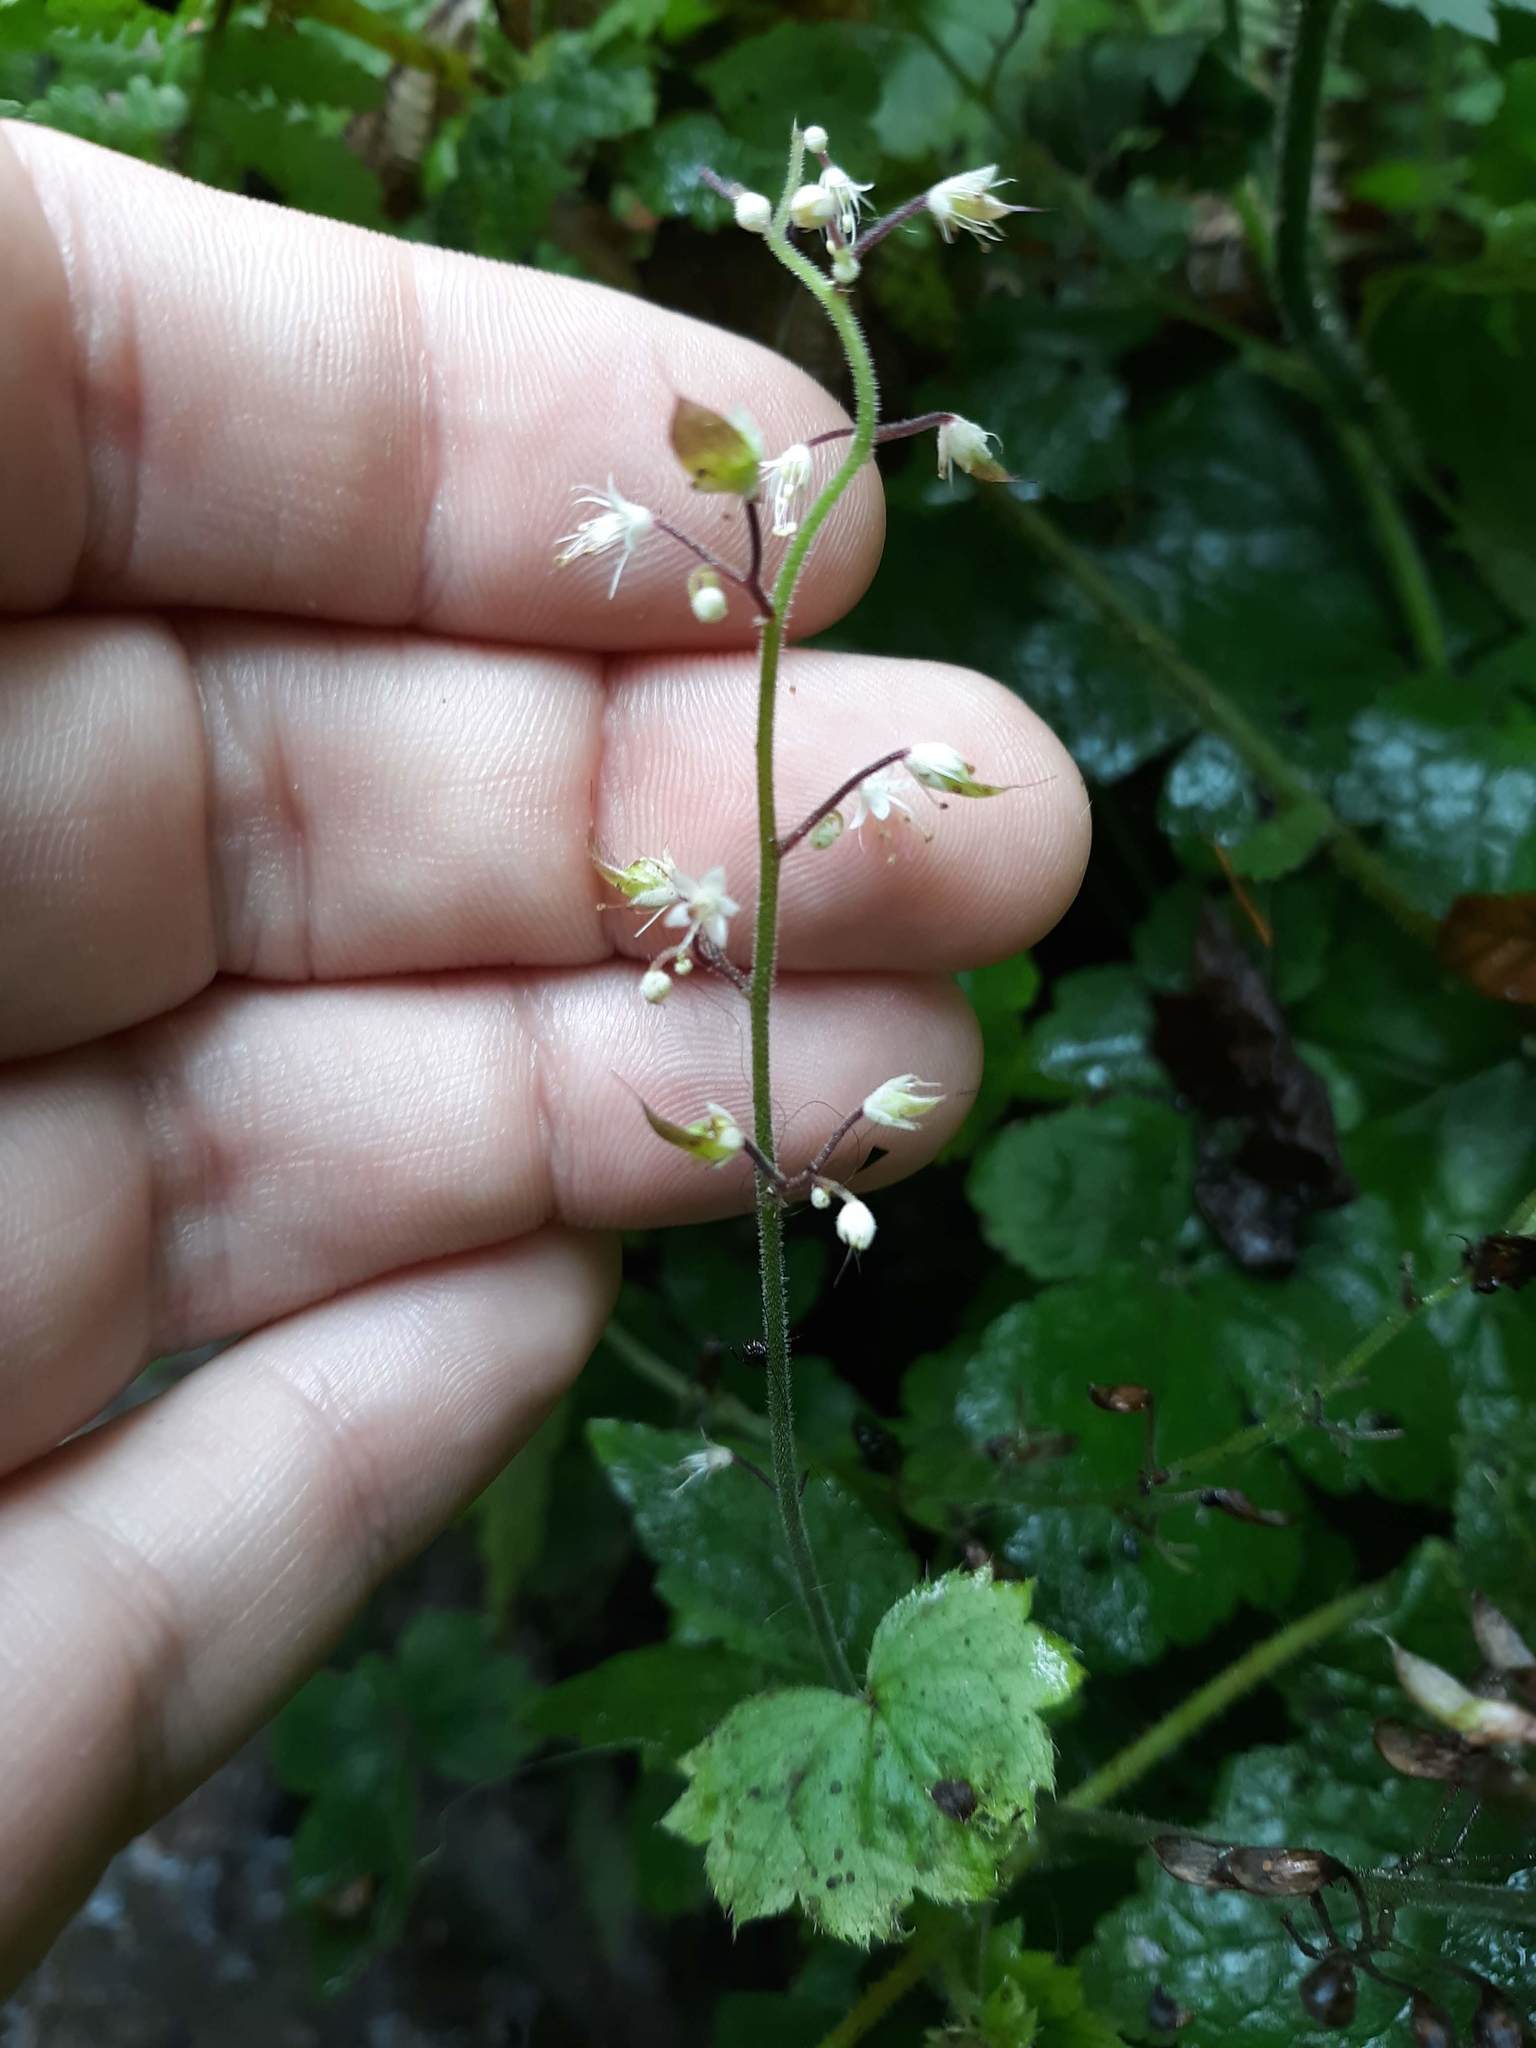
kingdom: Plantae
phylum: Tracheophyta
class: Magnoliopsida
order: Saxifragales
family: Saxifragaceae
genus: Tiarella
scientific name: Tiarella trifoliata
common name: Sugar-scoop
